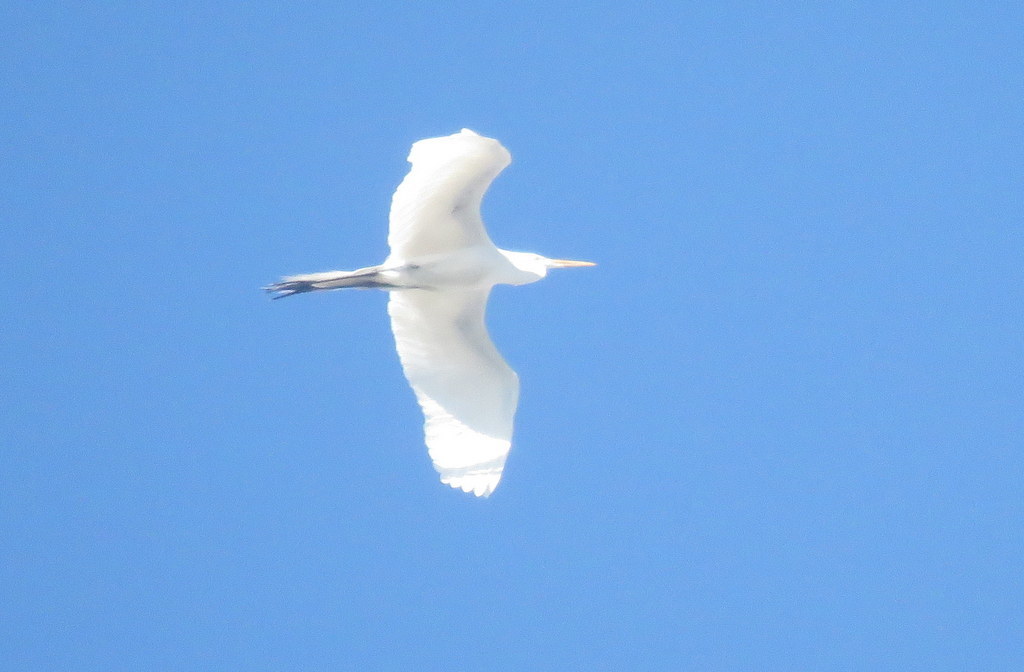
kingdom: Animalia
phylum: Chordata
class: Aves
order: Pelecaniformes
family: Ardeidae
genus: Ardea
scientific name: Ardea alba
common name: Great egret
